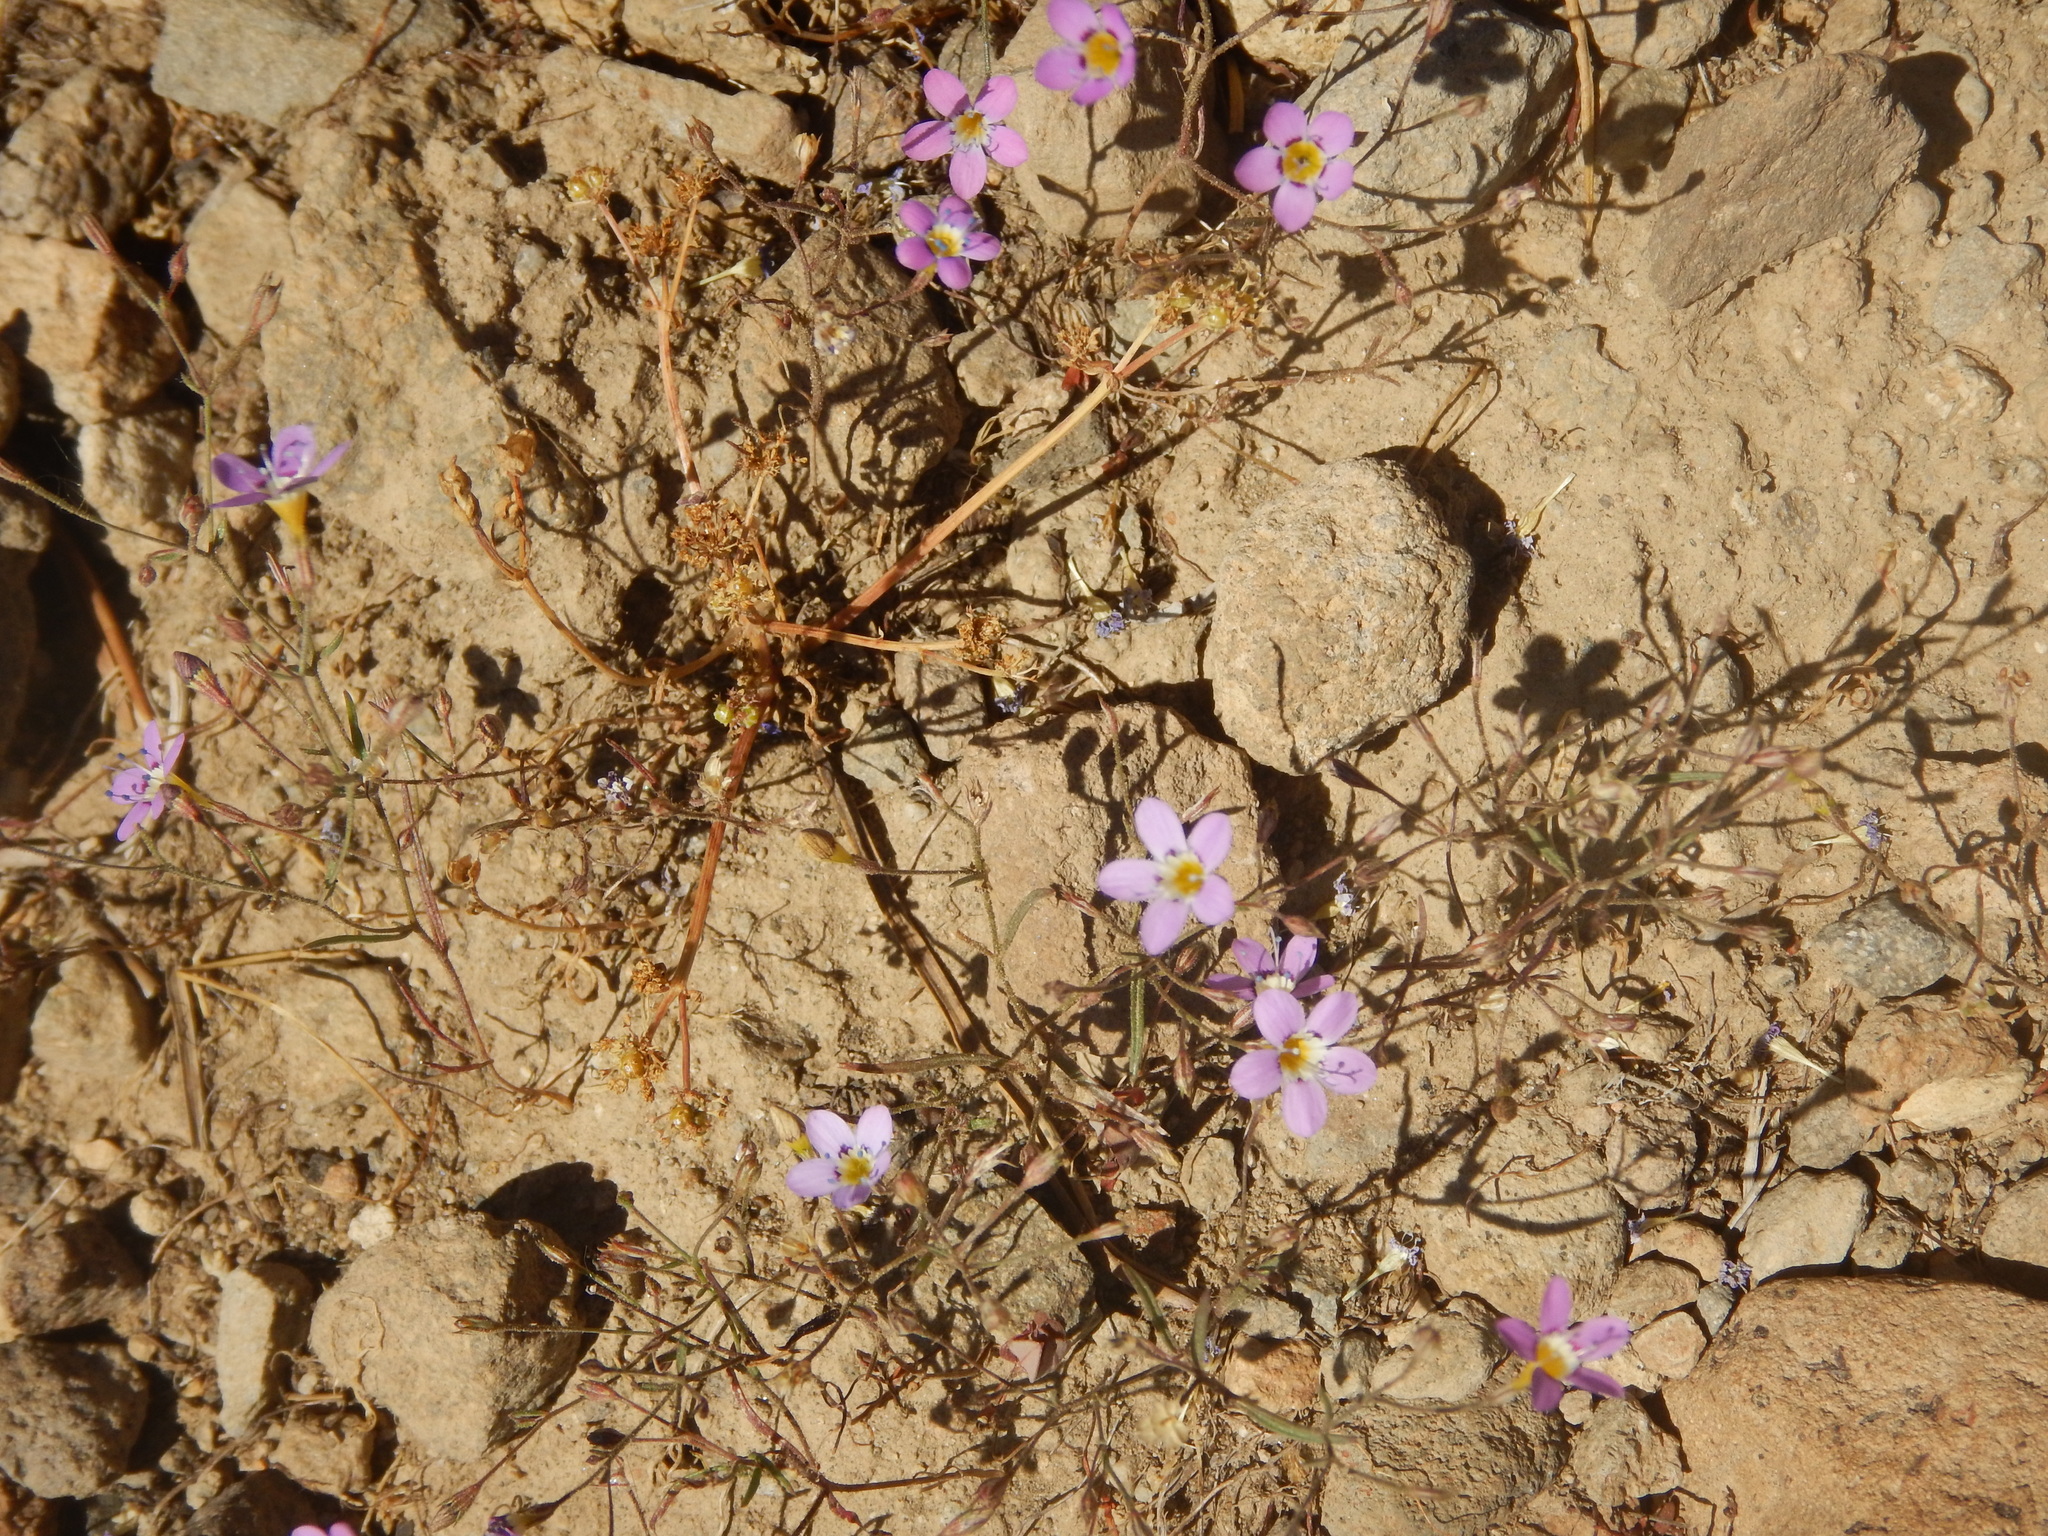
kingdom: Plantae
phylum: Tracheophyta
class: Magnoliopsida
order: Ericales
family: Polemoniaceae
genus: Navarretia
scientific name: Navarretia leptalea
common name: Bridges' pincushionplant
